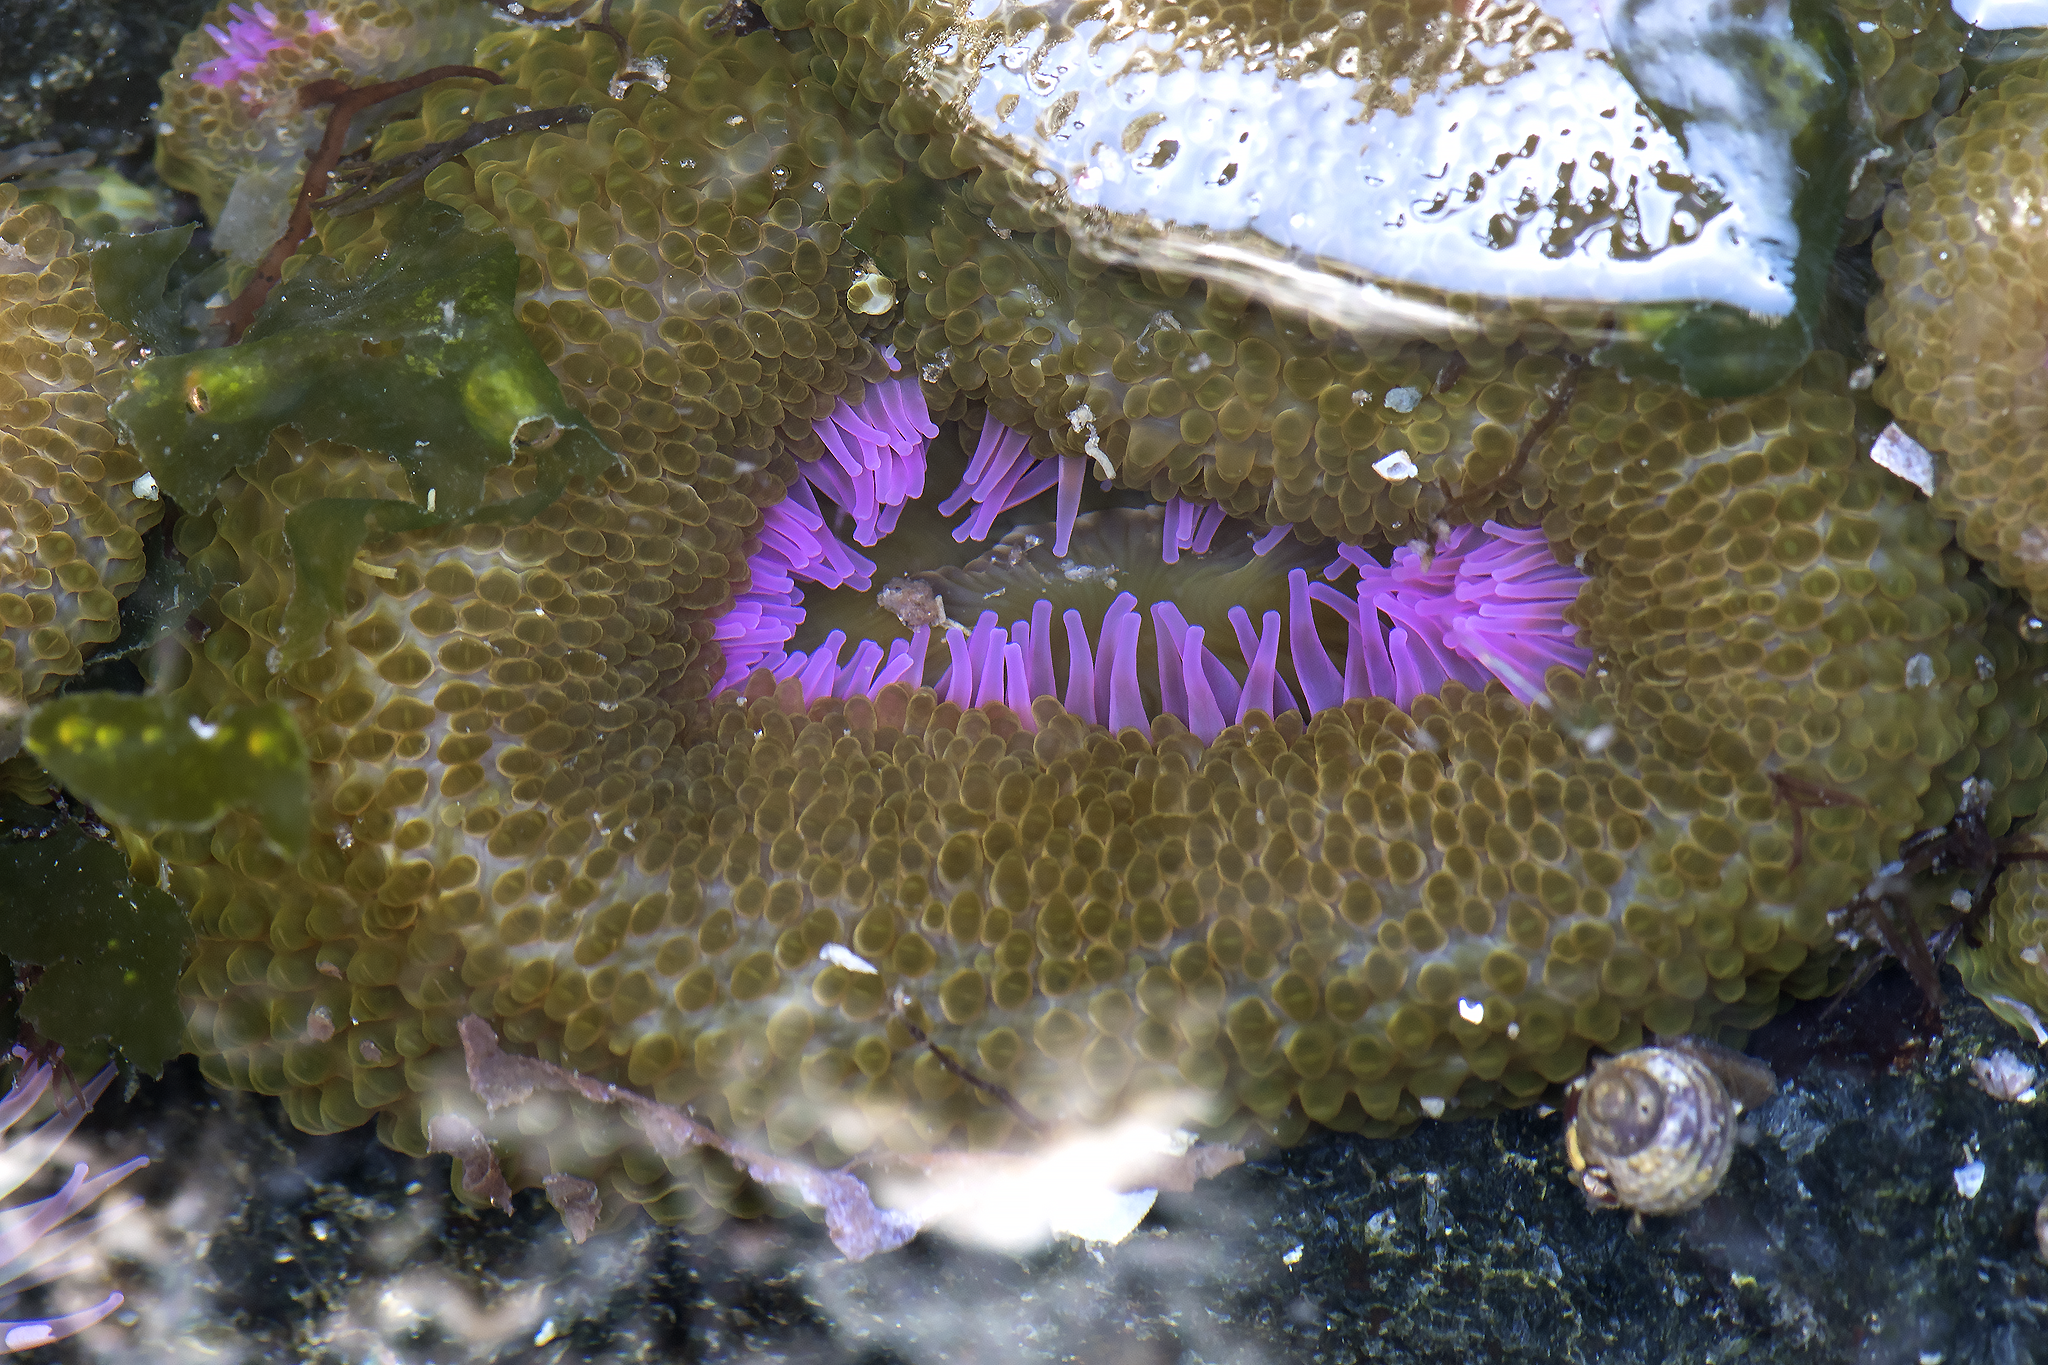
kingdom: Animalia
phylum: Cnidaria
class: Anthozoa
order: Actiniaria
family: Actiniidae
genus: Anthopleura
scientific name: Anthopleura elegantissima
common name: Clonal anemone
